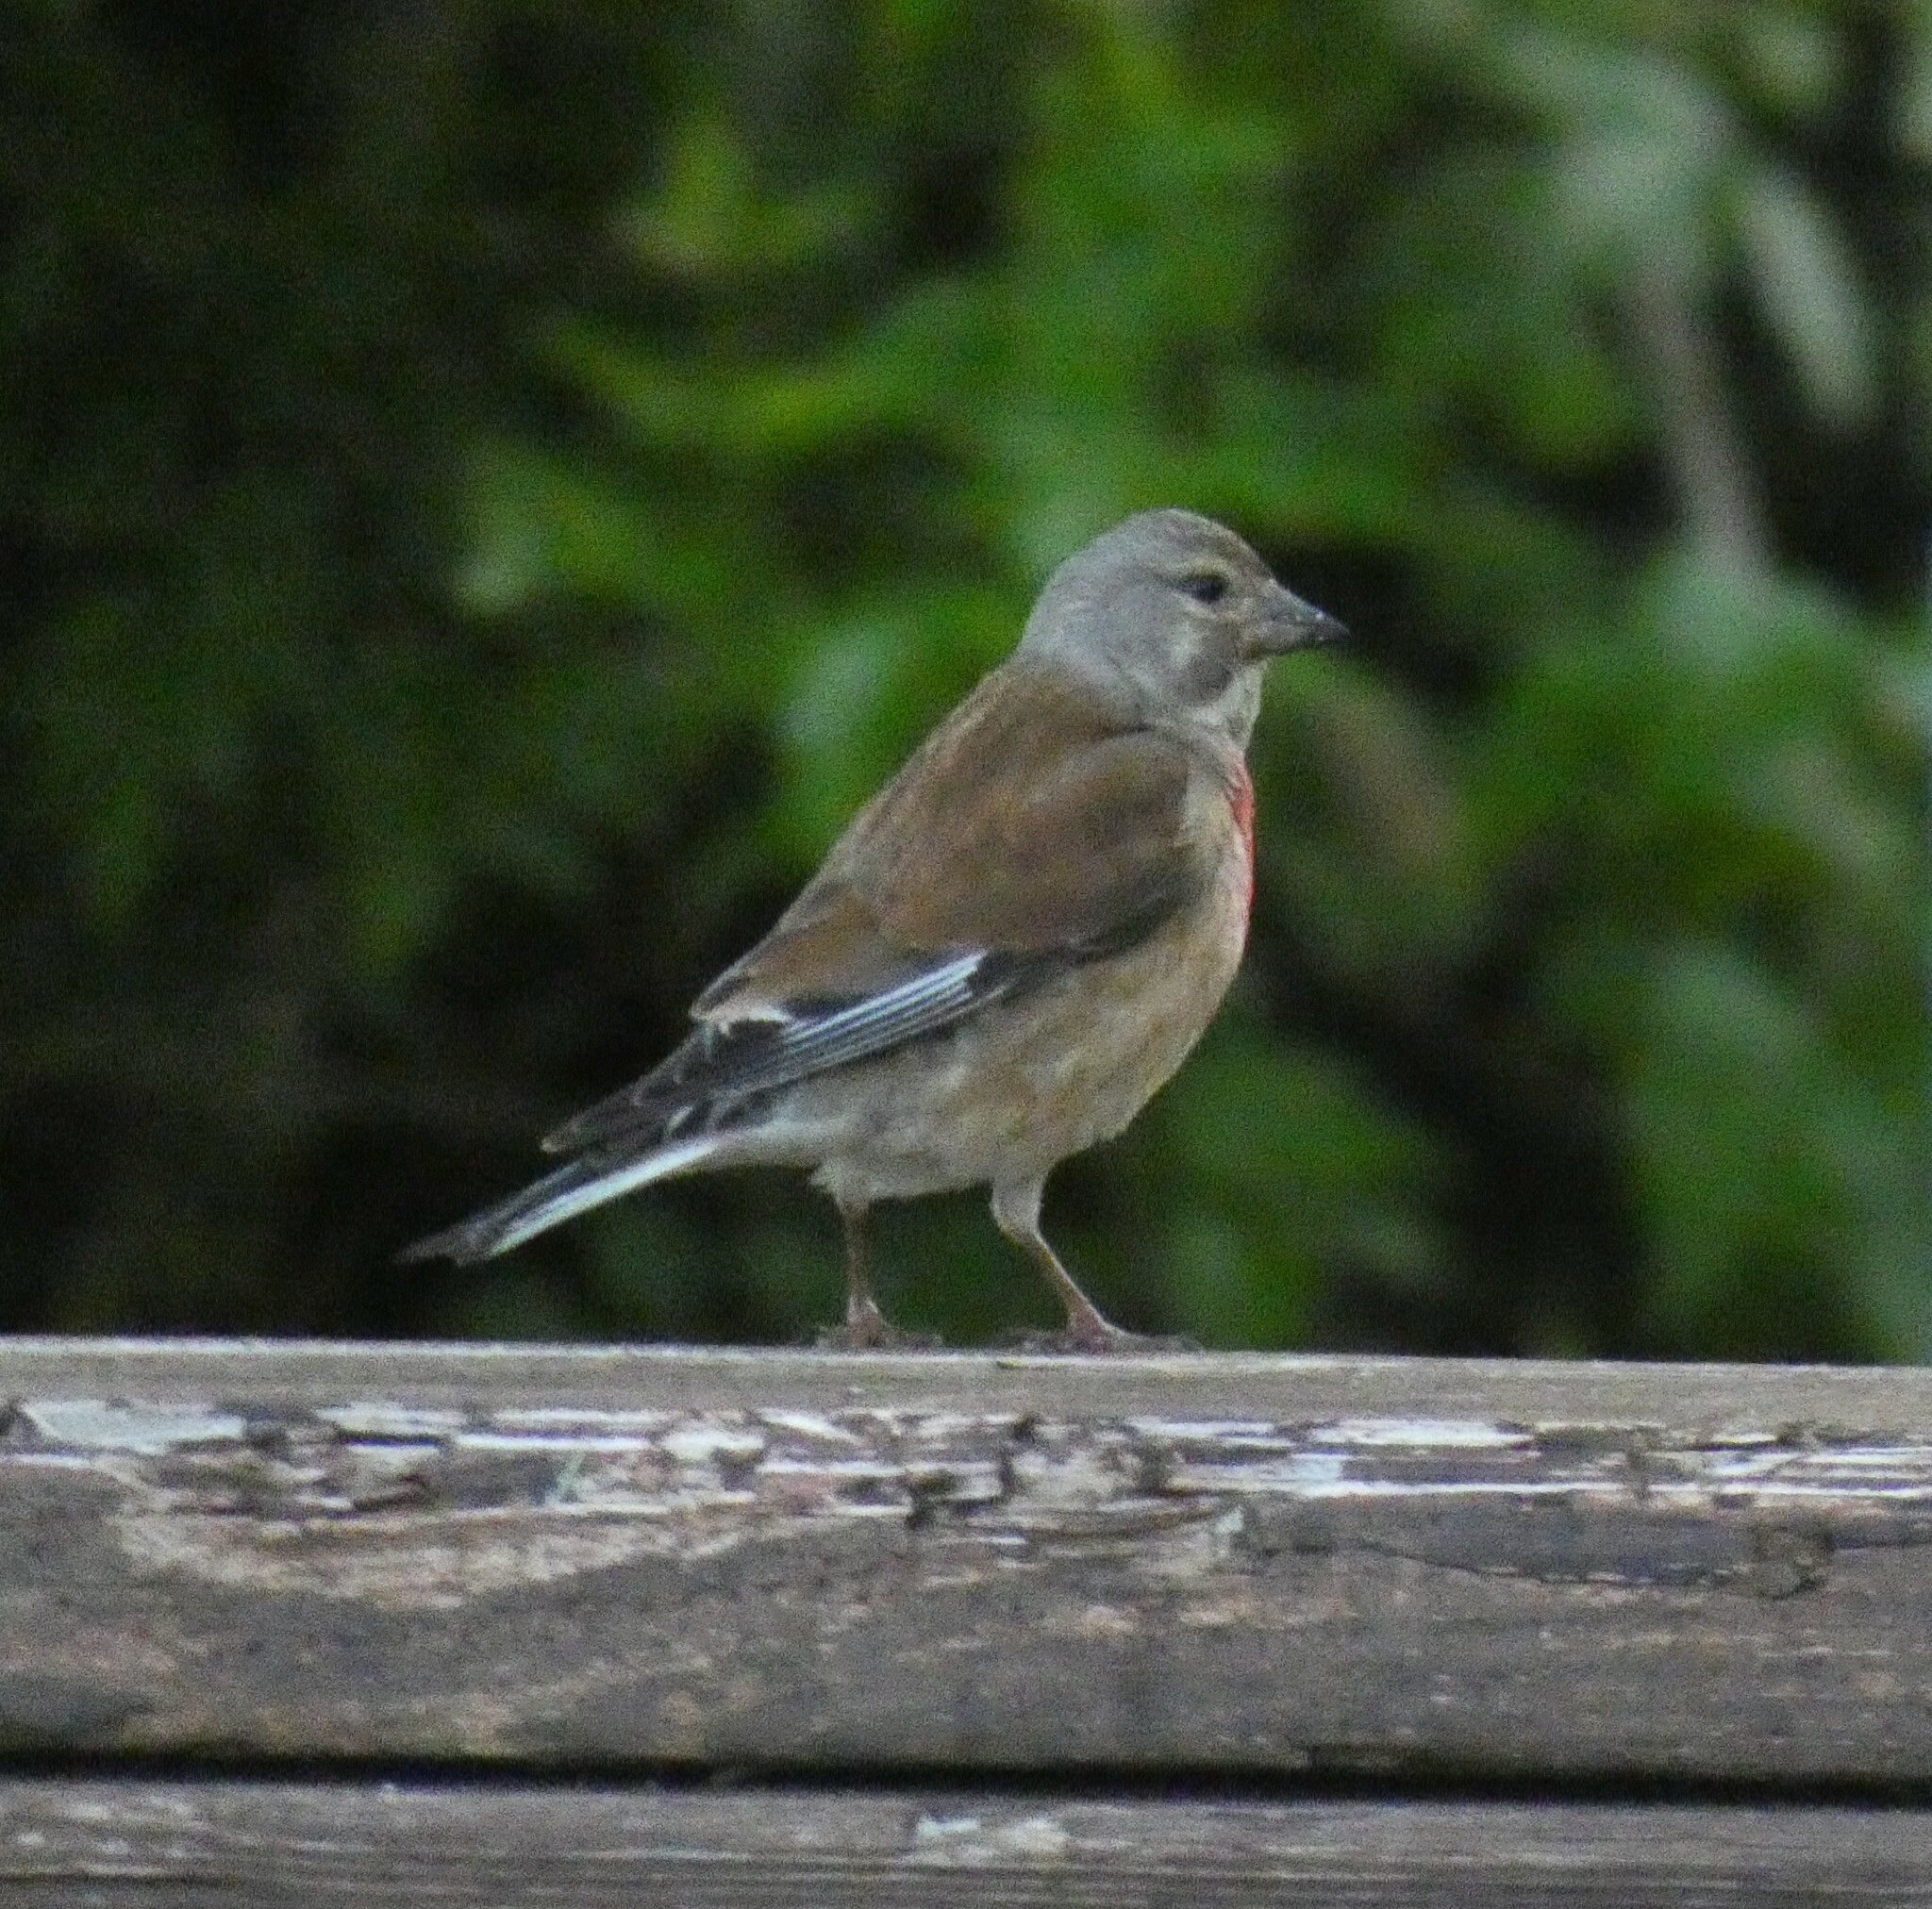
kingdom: Animalia
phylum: Chordata
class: Aves
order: Passeriformes
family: Fringillidae
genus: Linaria
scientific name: Linaria cannabina
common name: Common linnet
